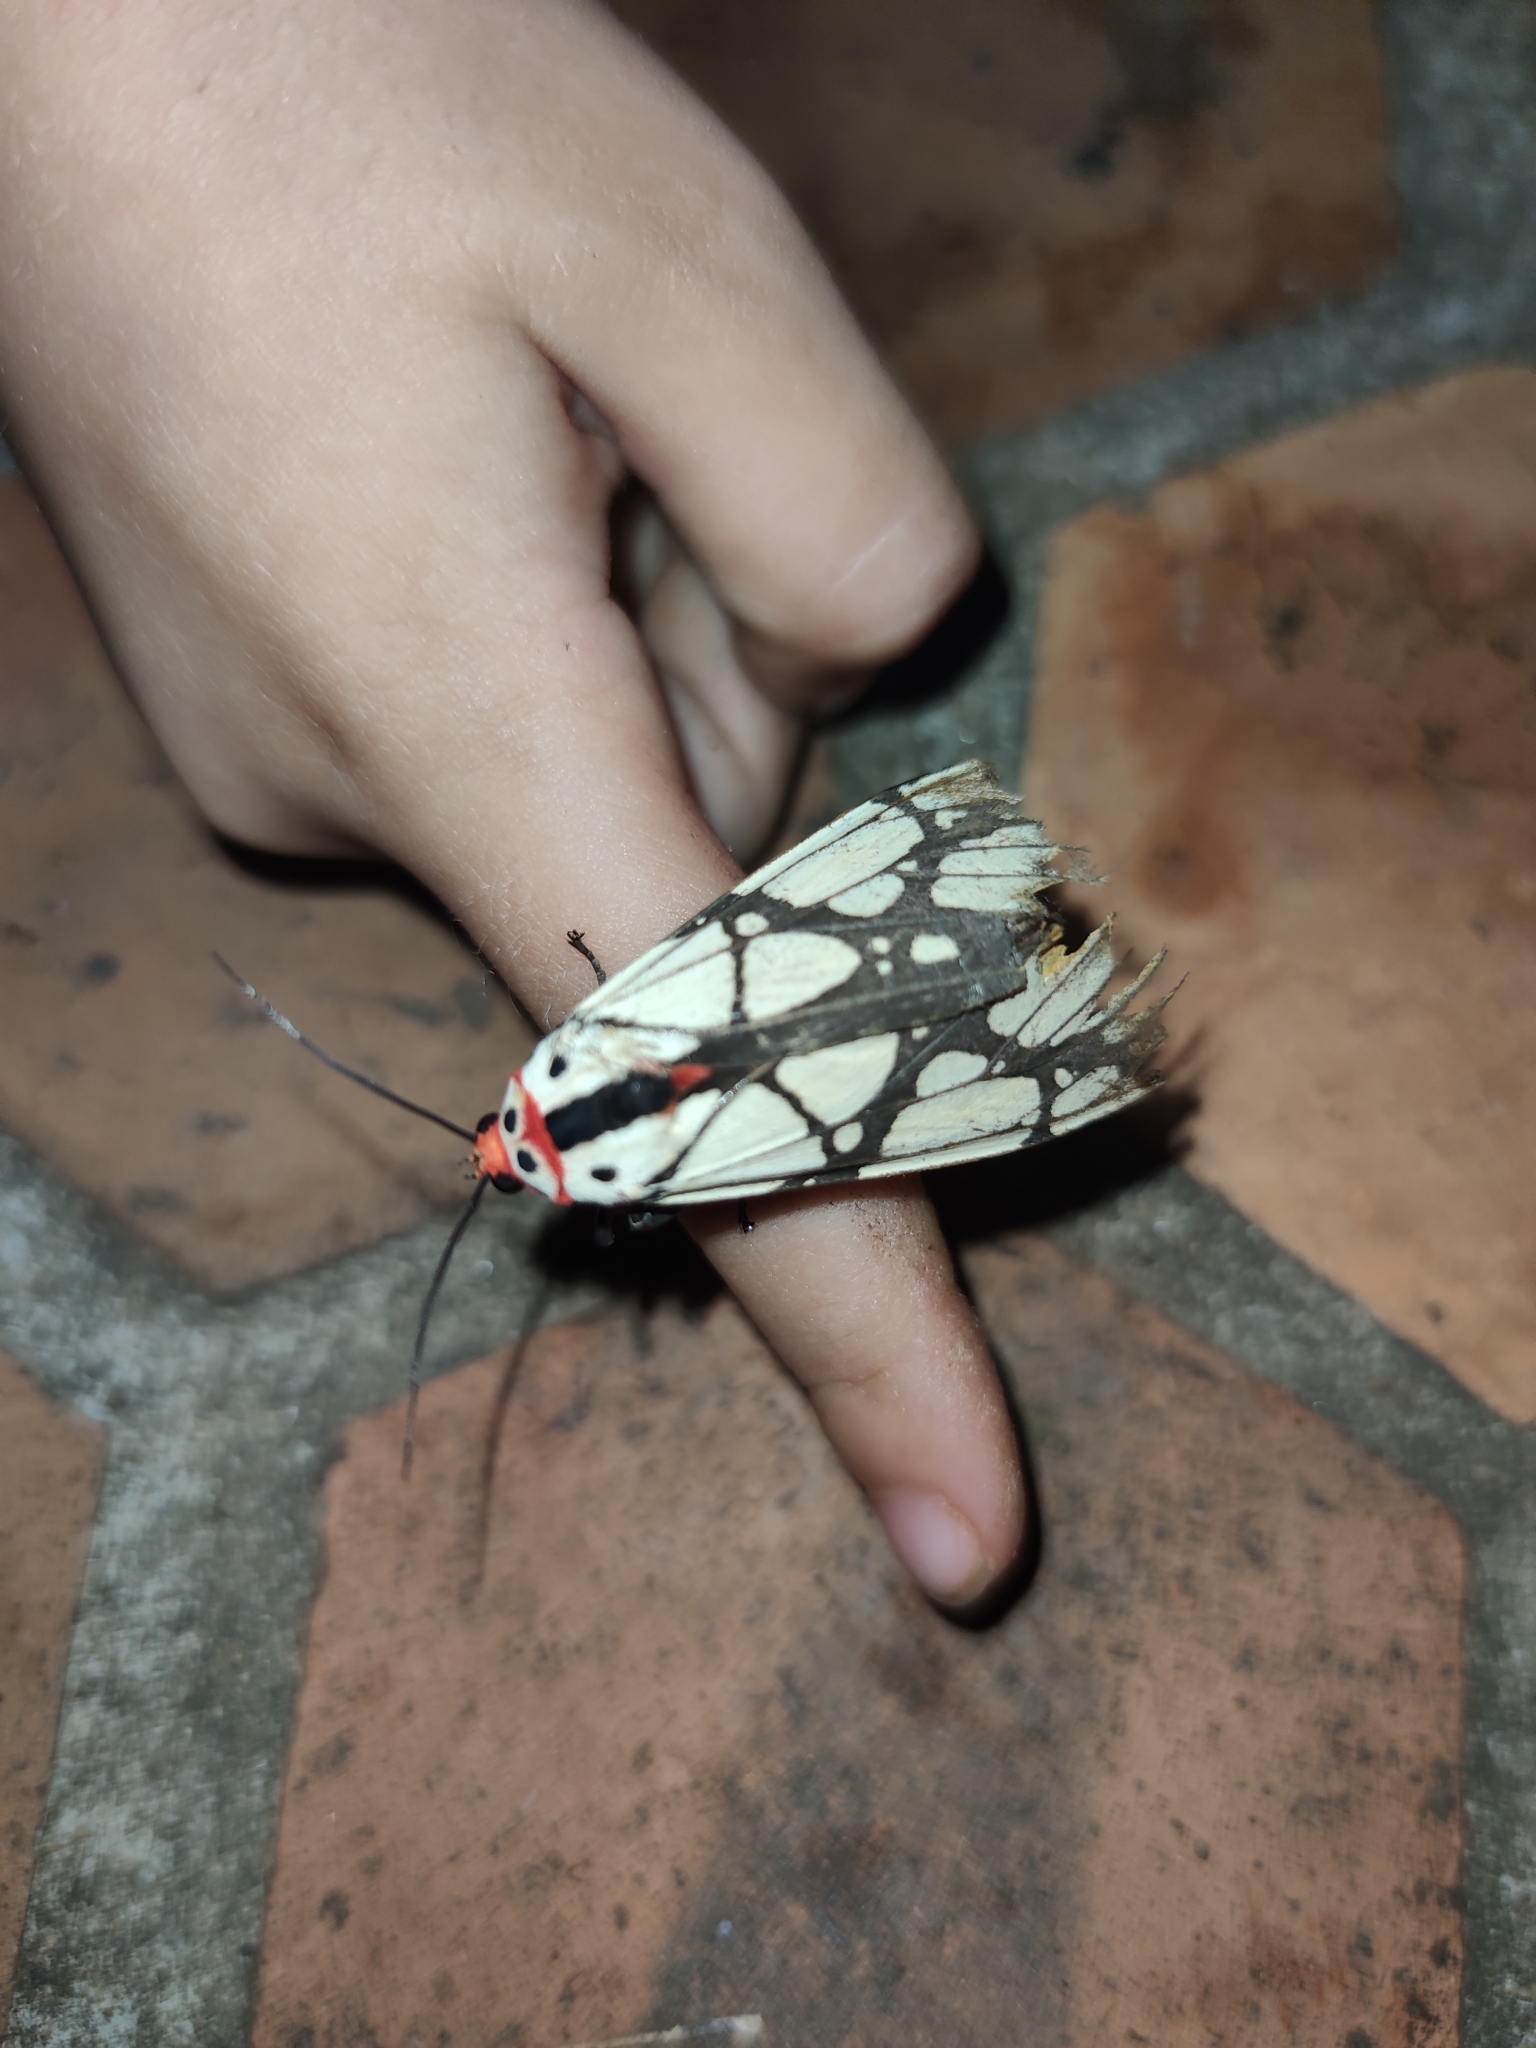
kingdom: Animalia
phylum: Arthropoda
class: Insecta
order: Lepidoptera
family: Erebidae
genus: Areas
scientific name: Areas galactina
